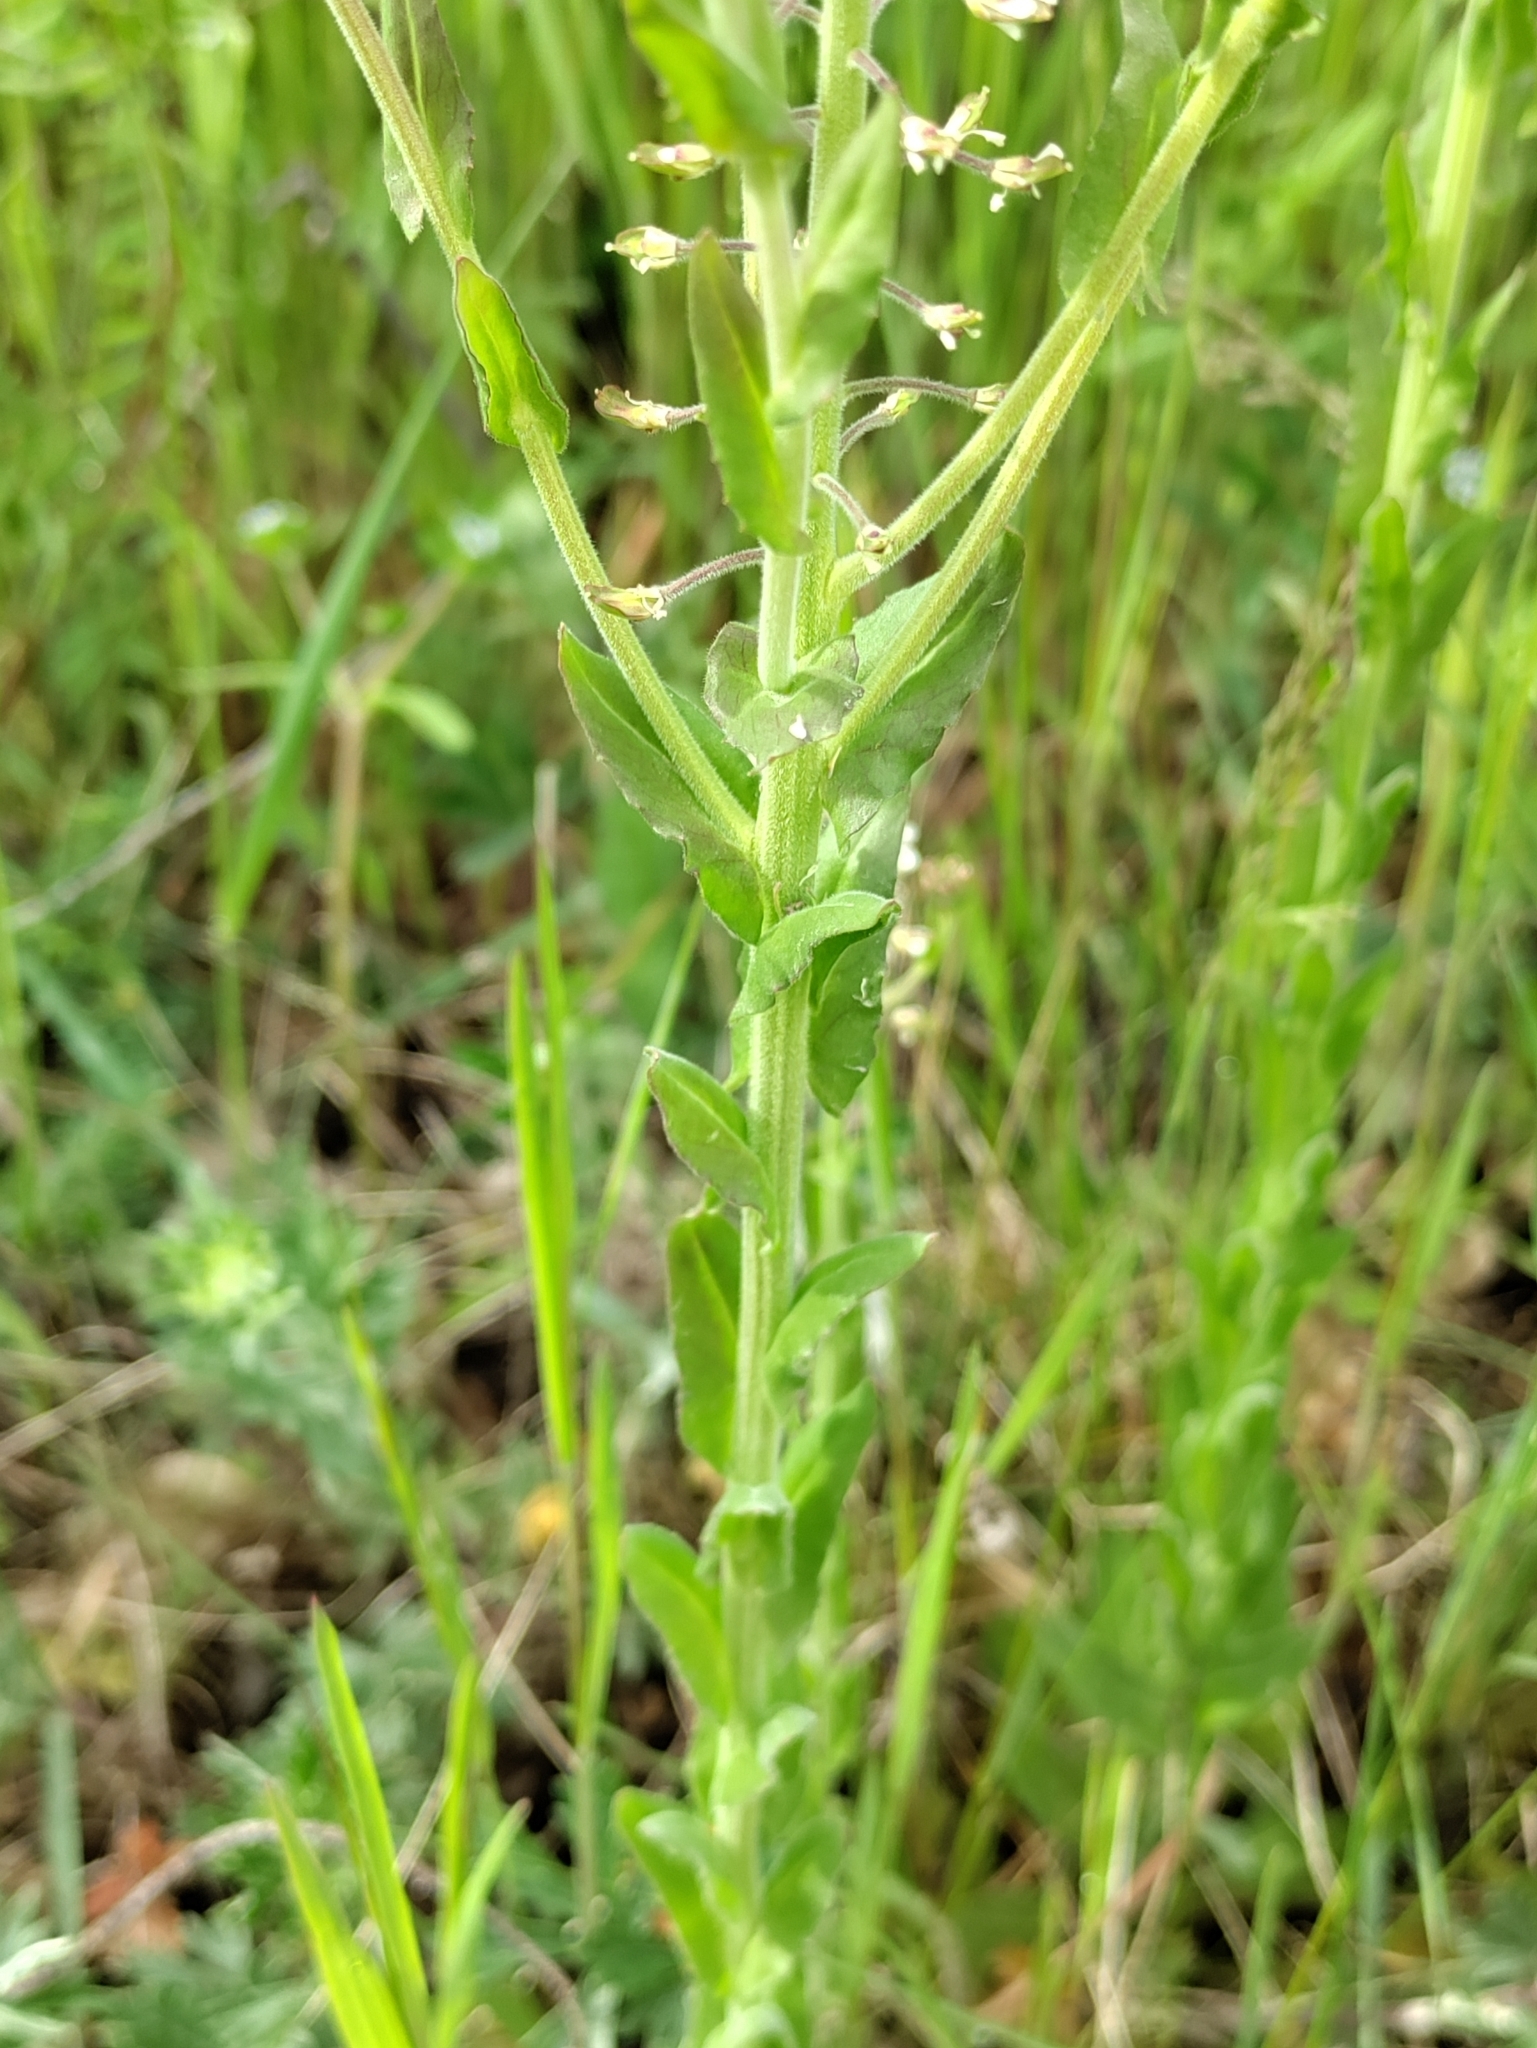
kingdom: Plantae
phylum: Tracheophyta
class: Magnoliopsida
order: Brassicales
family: Brassicaceae
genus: Lepidium
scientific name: Lepidium campestre
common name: Field pepperwort
